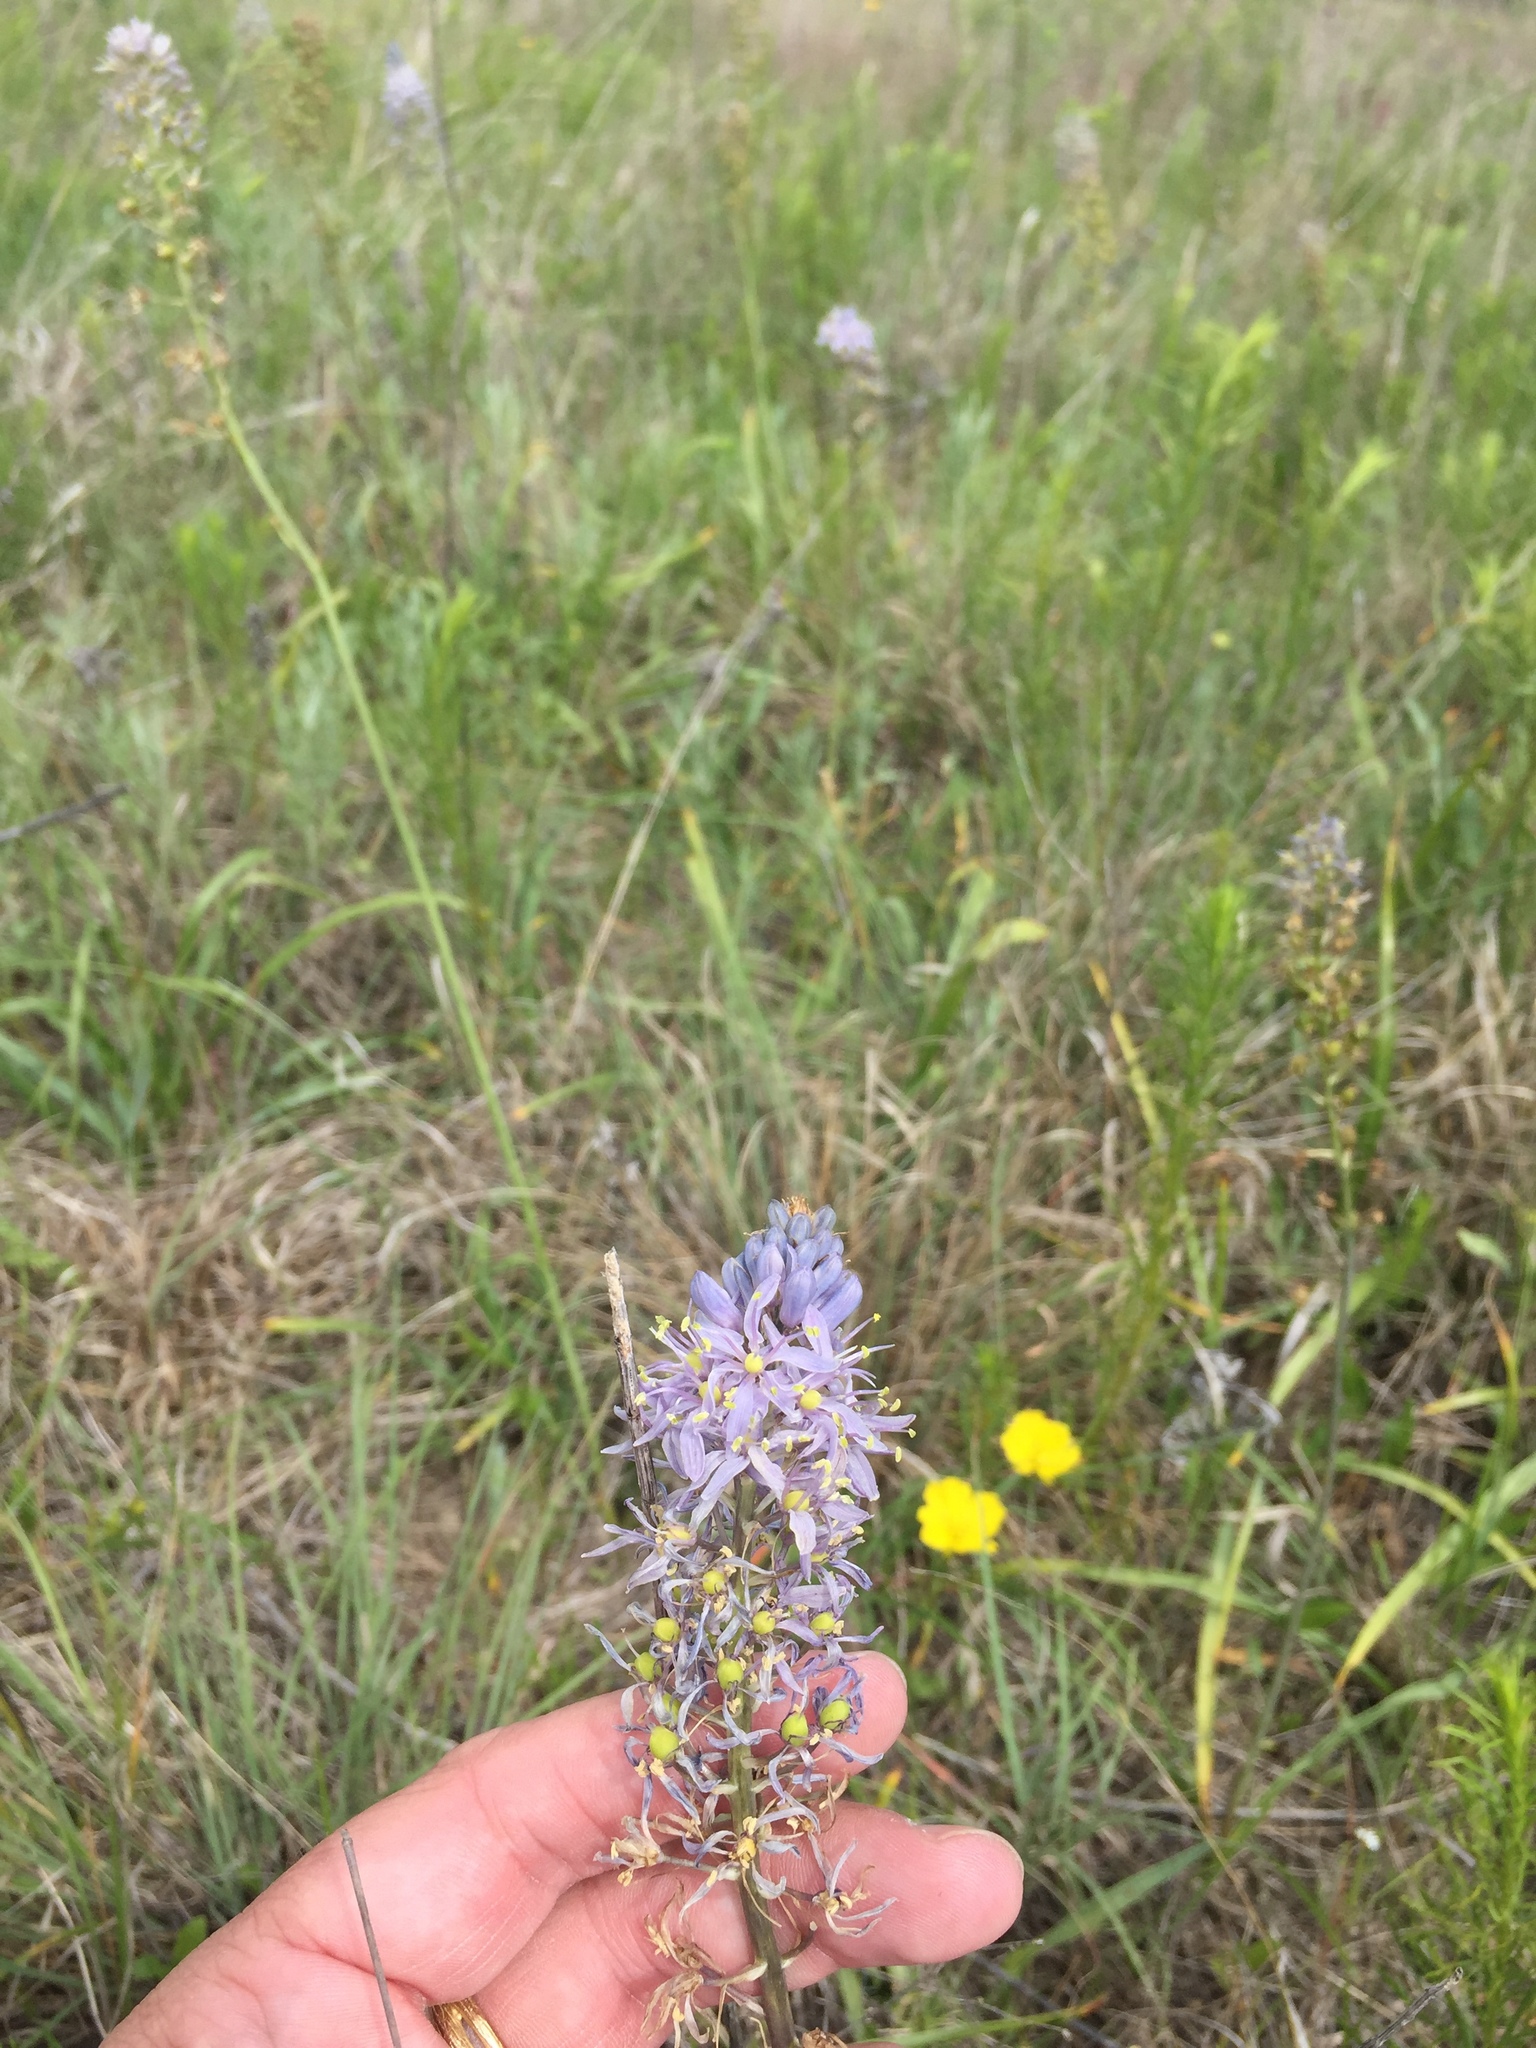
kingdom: Plantae
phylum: Tracheophyta
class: Liliopsida
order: Asparagales
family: Asparagaceae
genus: Camassia
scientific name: Camassia scilloides
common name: Wild hyacinth
